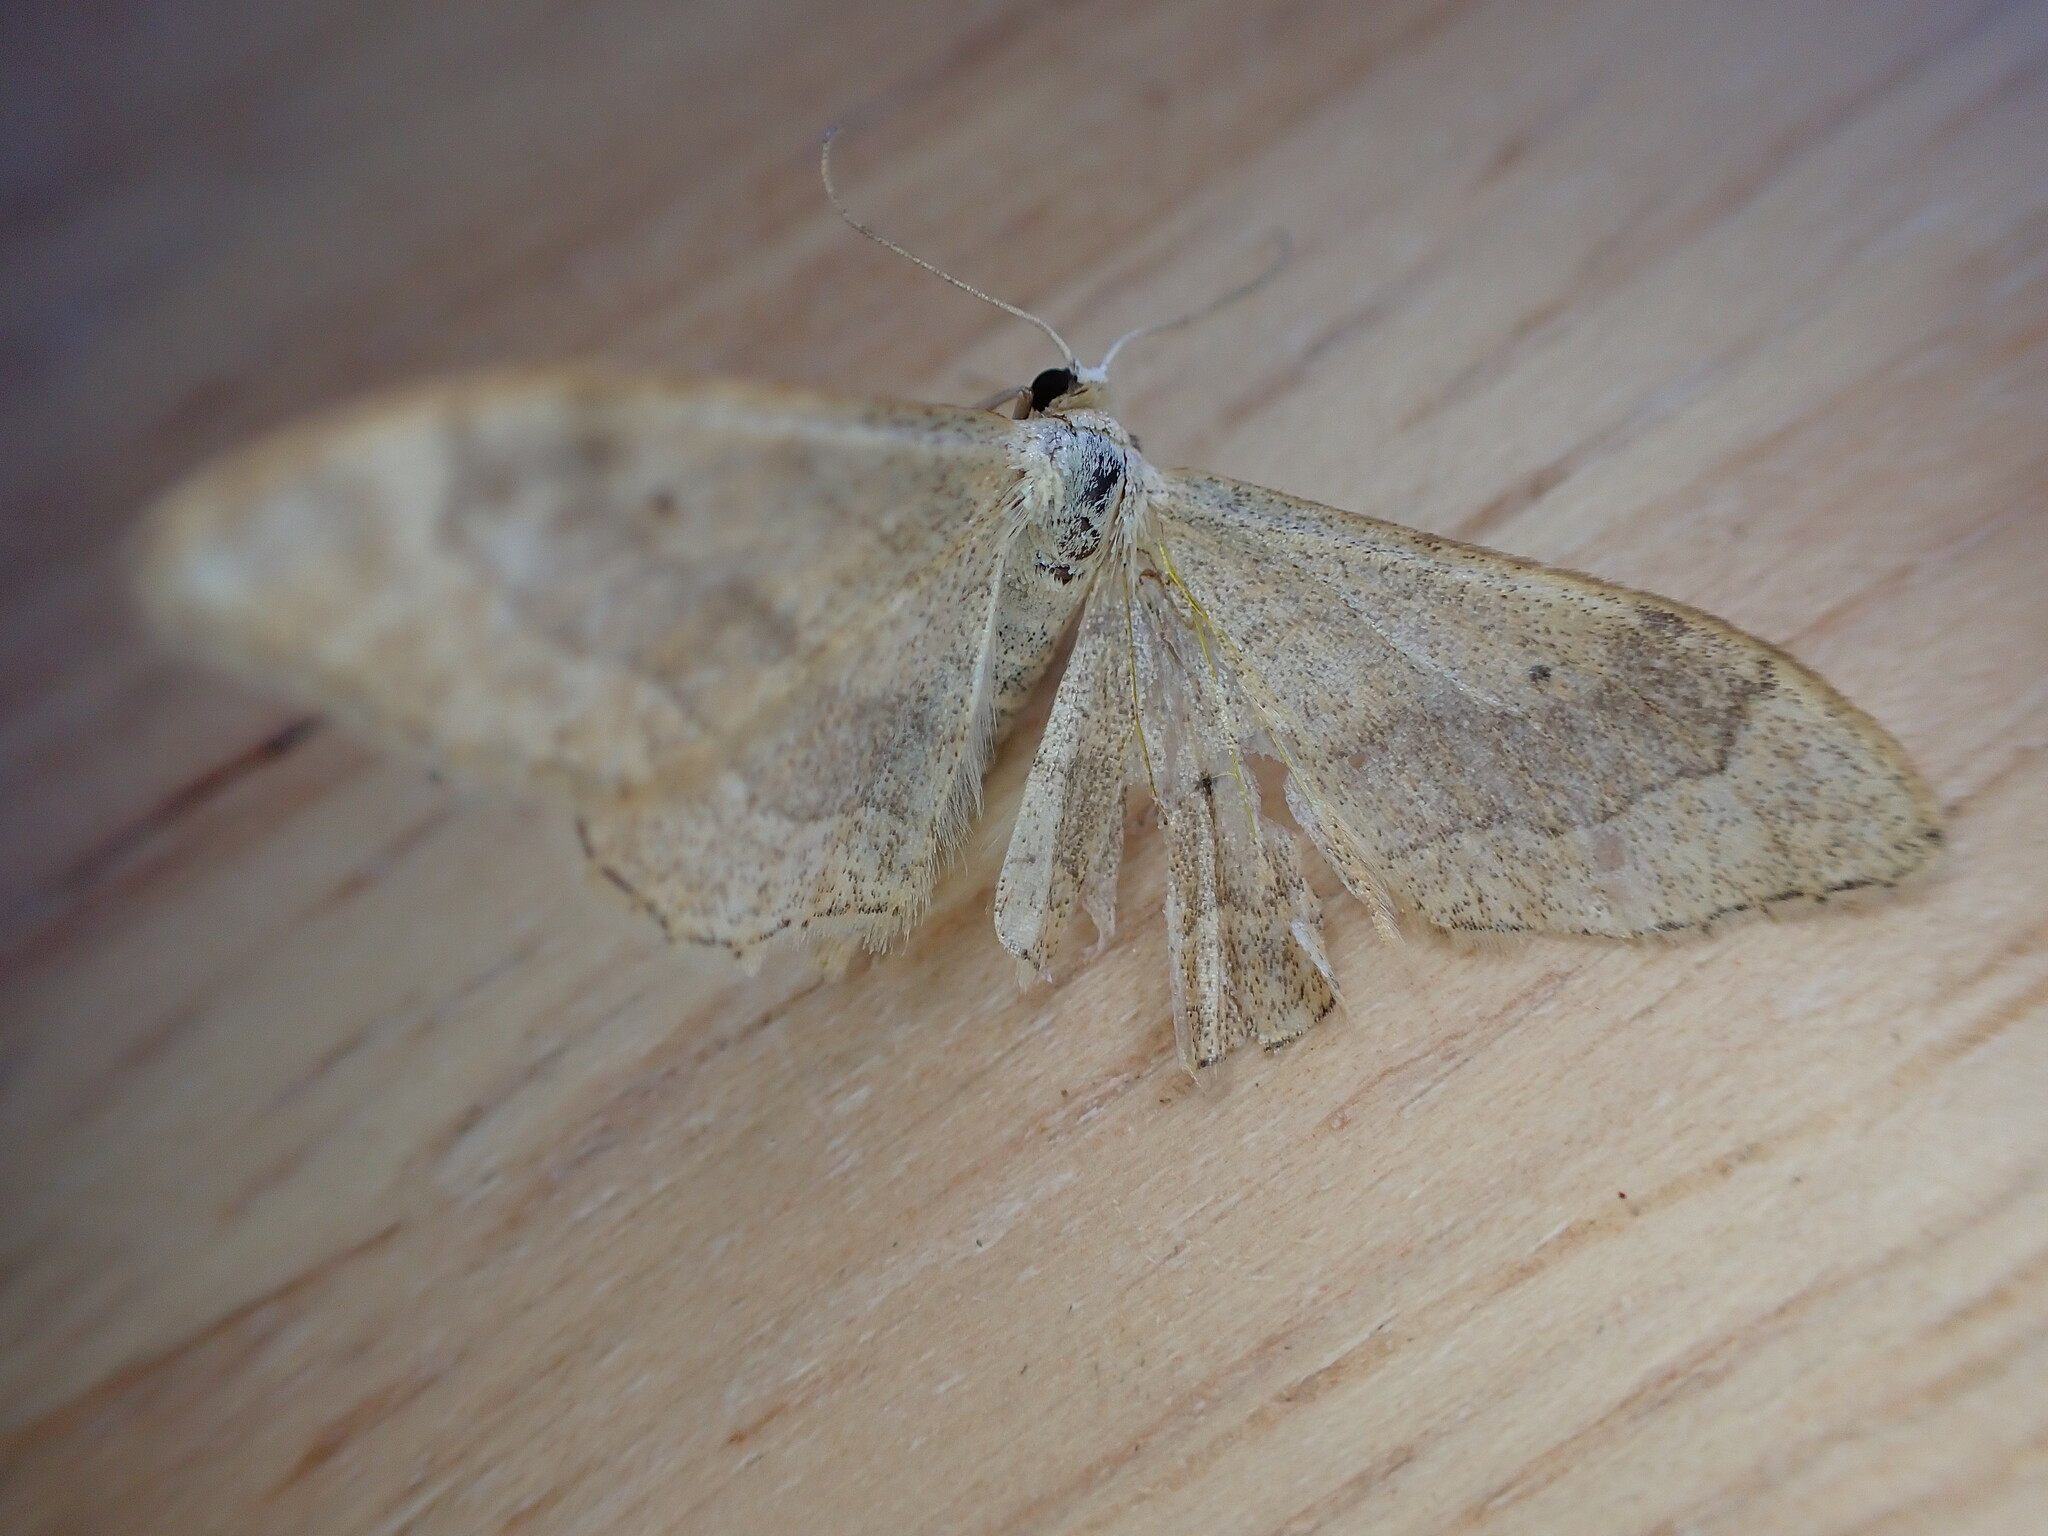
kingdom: Animalia
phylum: Arthropoda
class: Insecta
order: Lepidoptera
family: Geometridae
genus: Idaea
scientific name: Idaea aversata
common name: Riband wave
